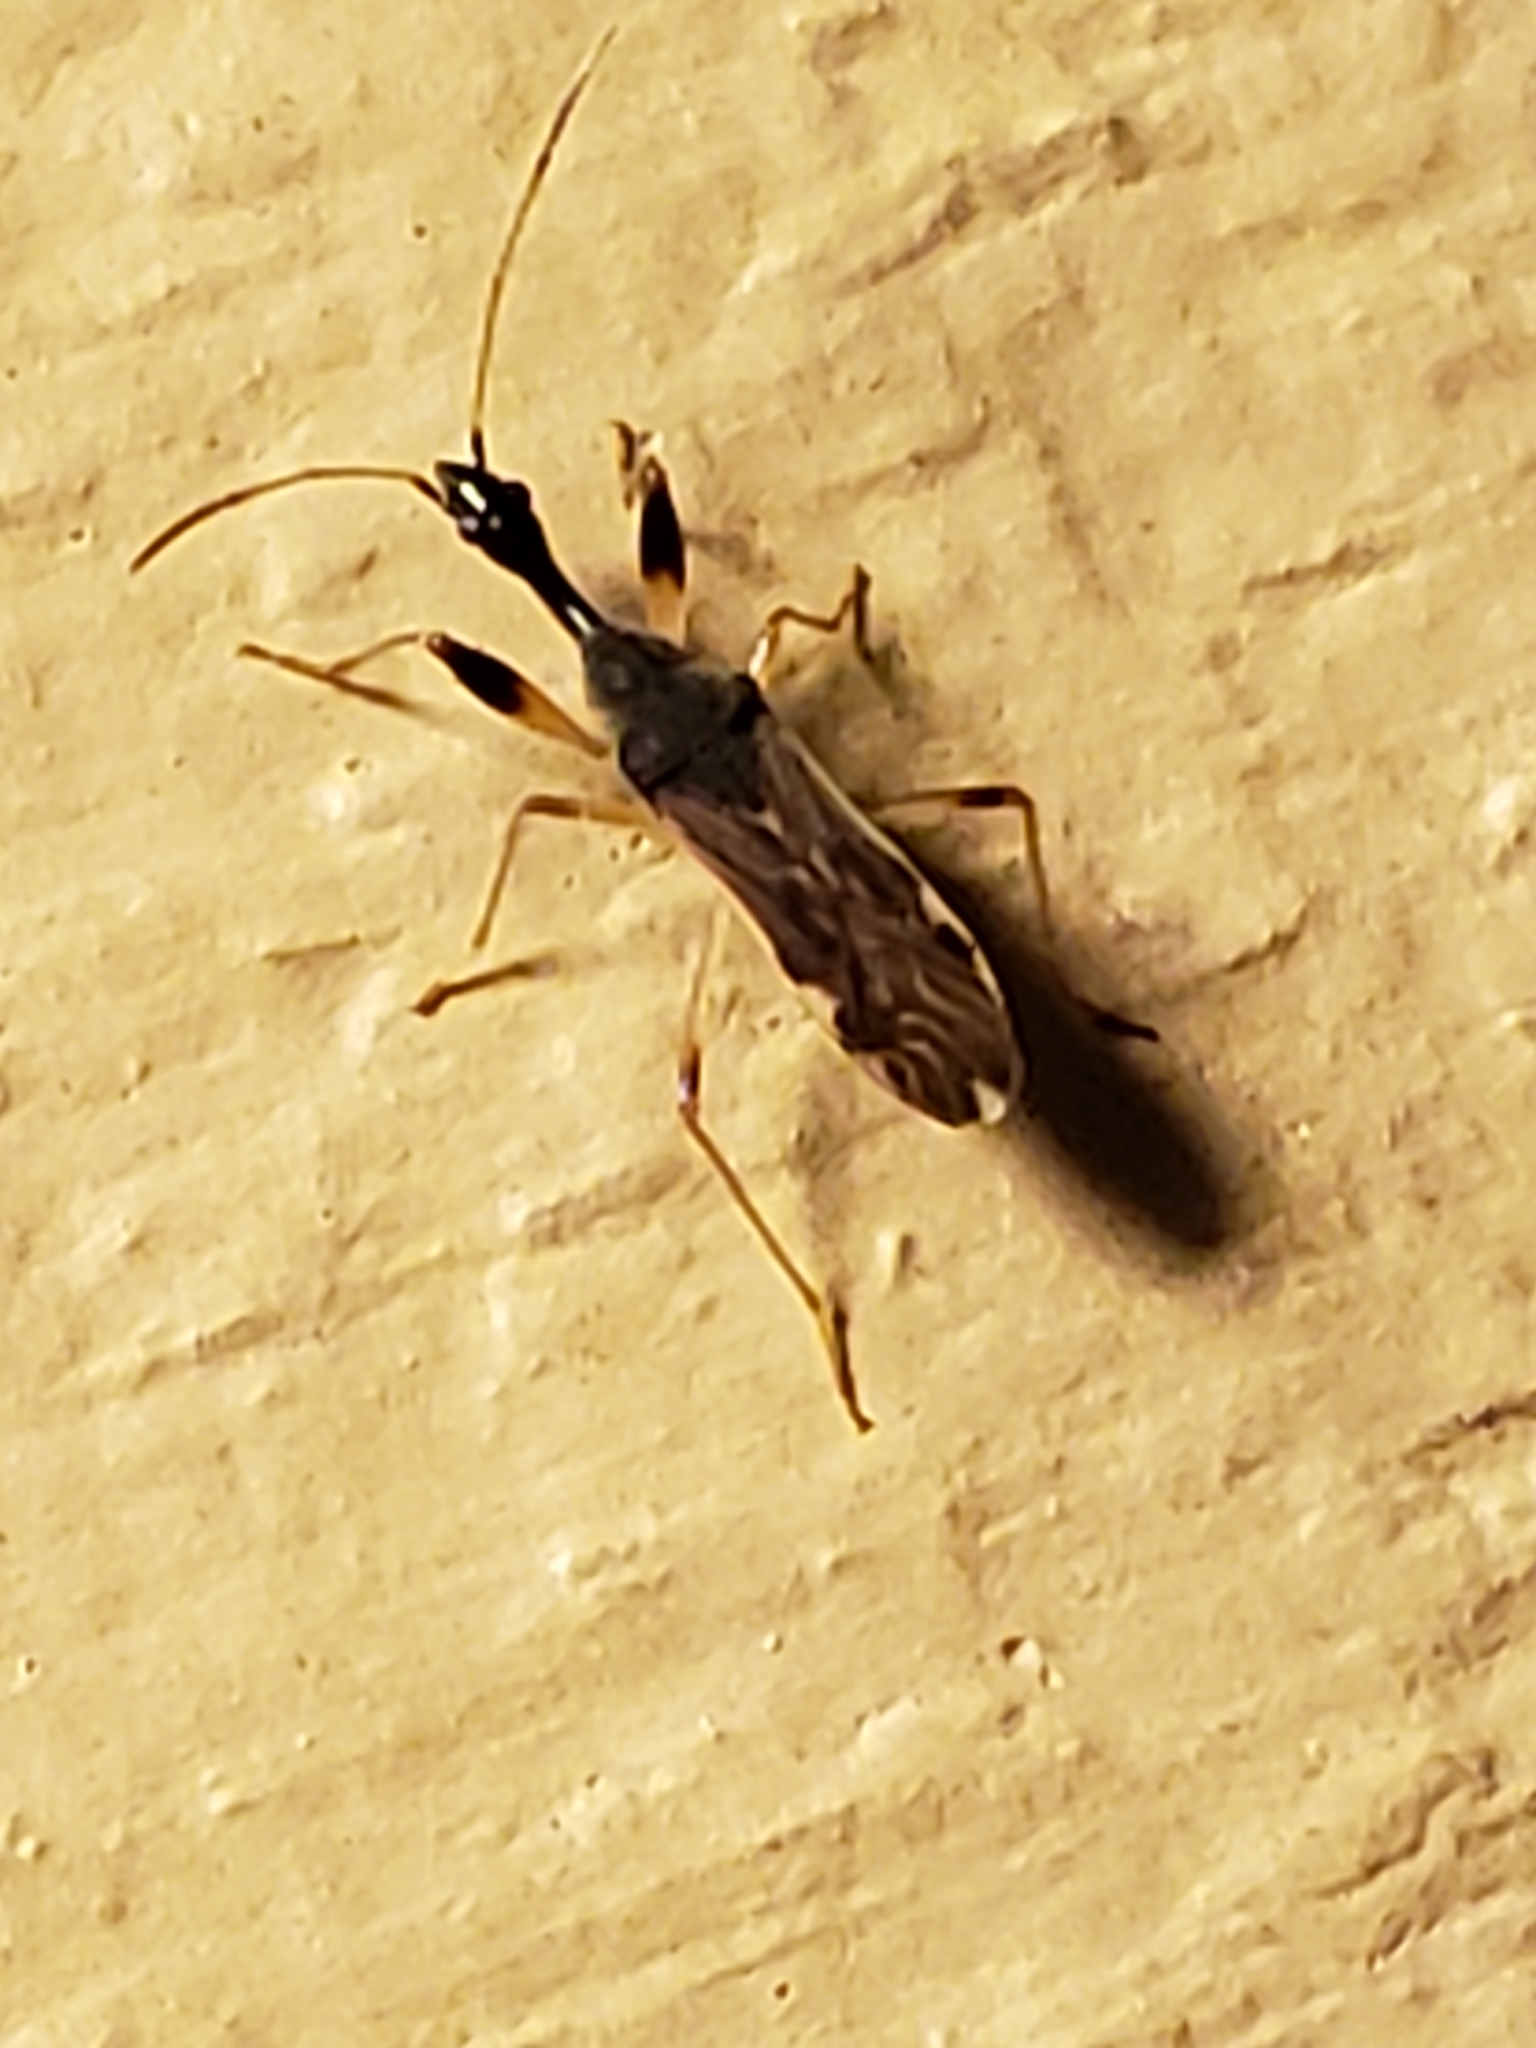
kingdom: Animalia
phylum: Arthropoda
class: Insecta
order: Hemiptera
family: Rhyparochromidae
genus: Myodocha
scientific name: Myodocha serripes
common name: Long-necked seed bug
